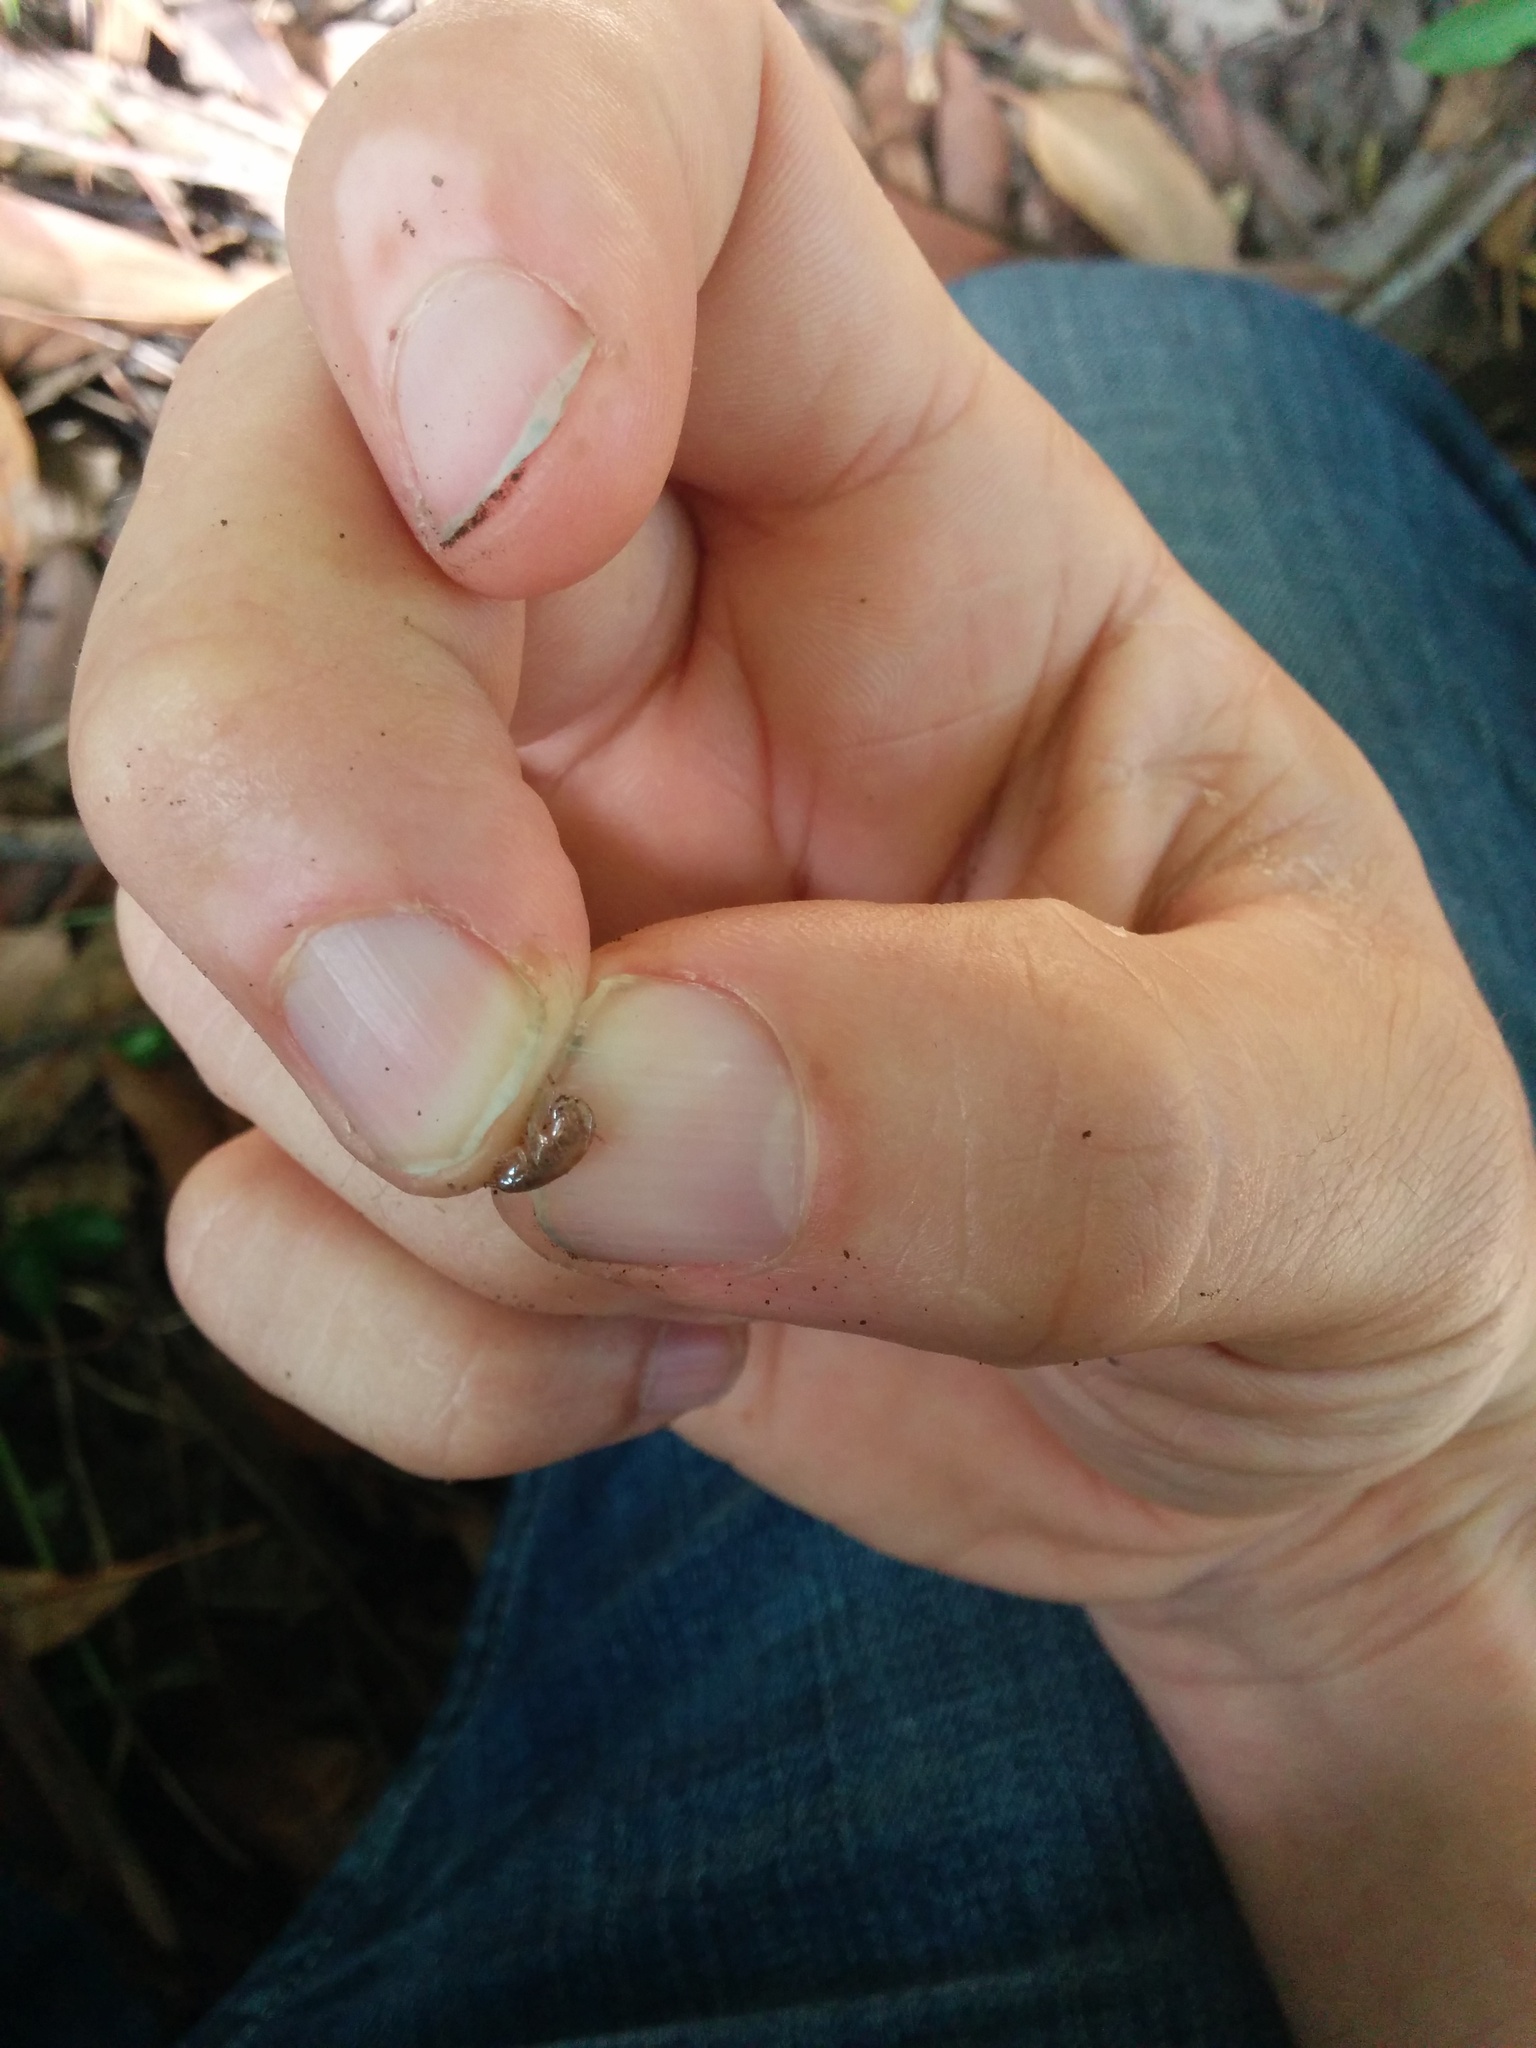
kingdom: Animalia
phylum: Arthropoda
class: Malacostraca
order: Amphipoda
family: Arcitalitridae
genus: Arcitalitrus
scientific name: Arcitalitrus sylvaticus
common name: Gammarid amphipod
